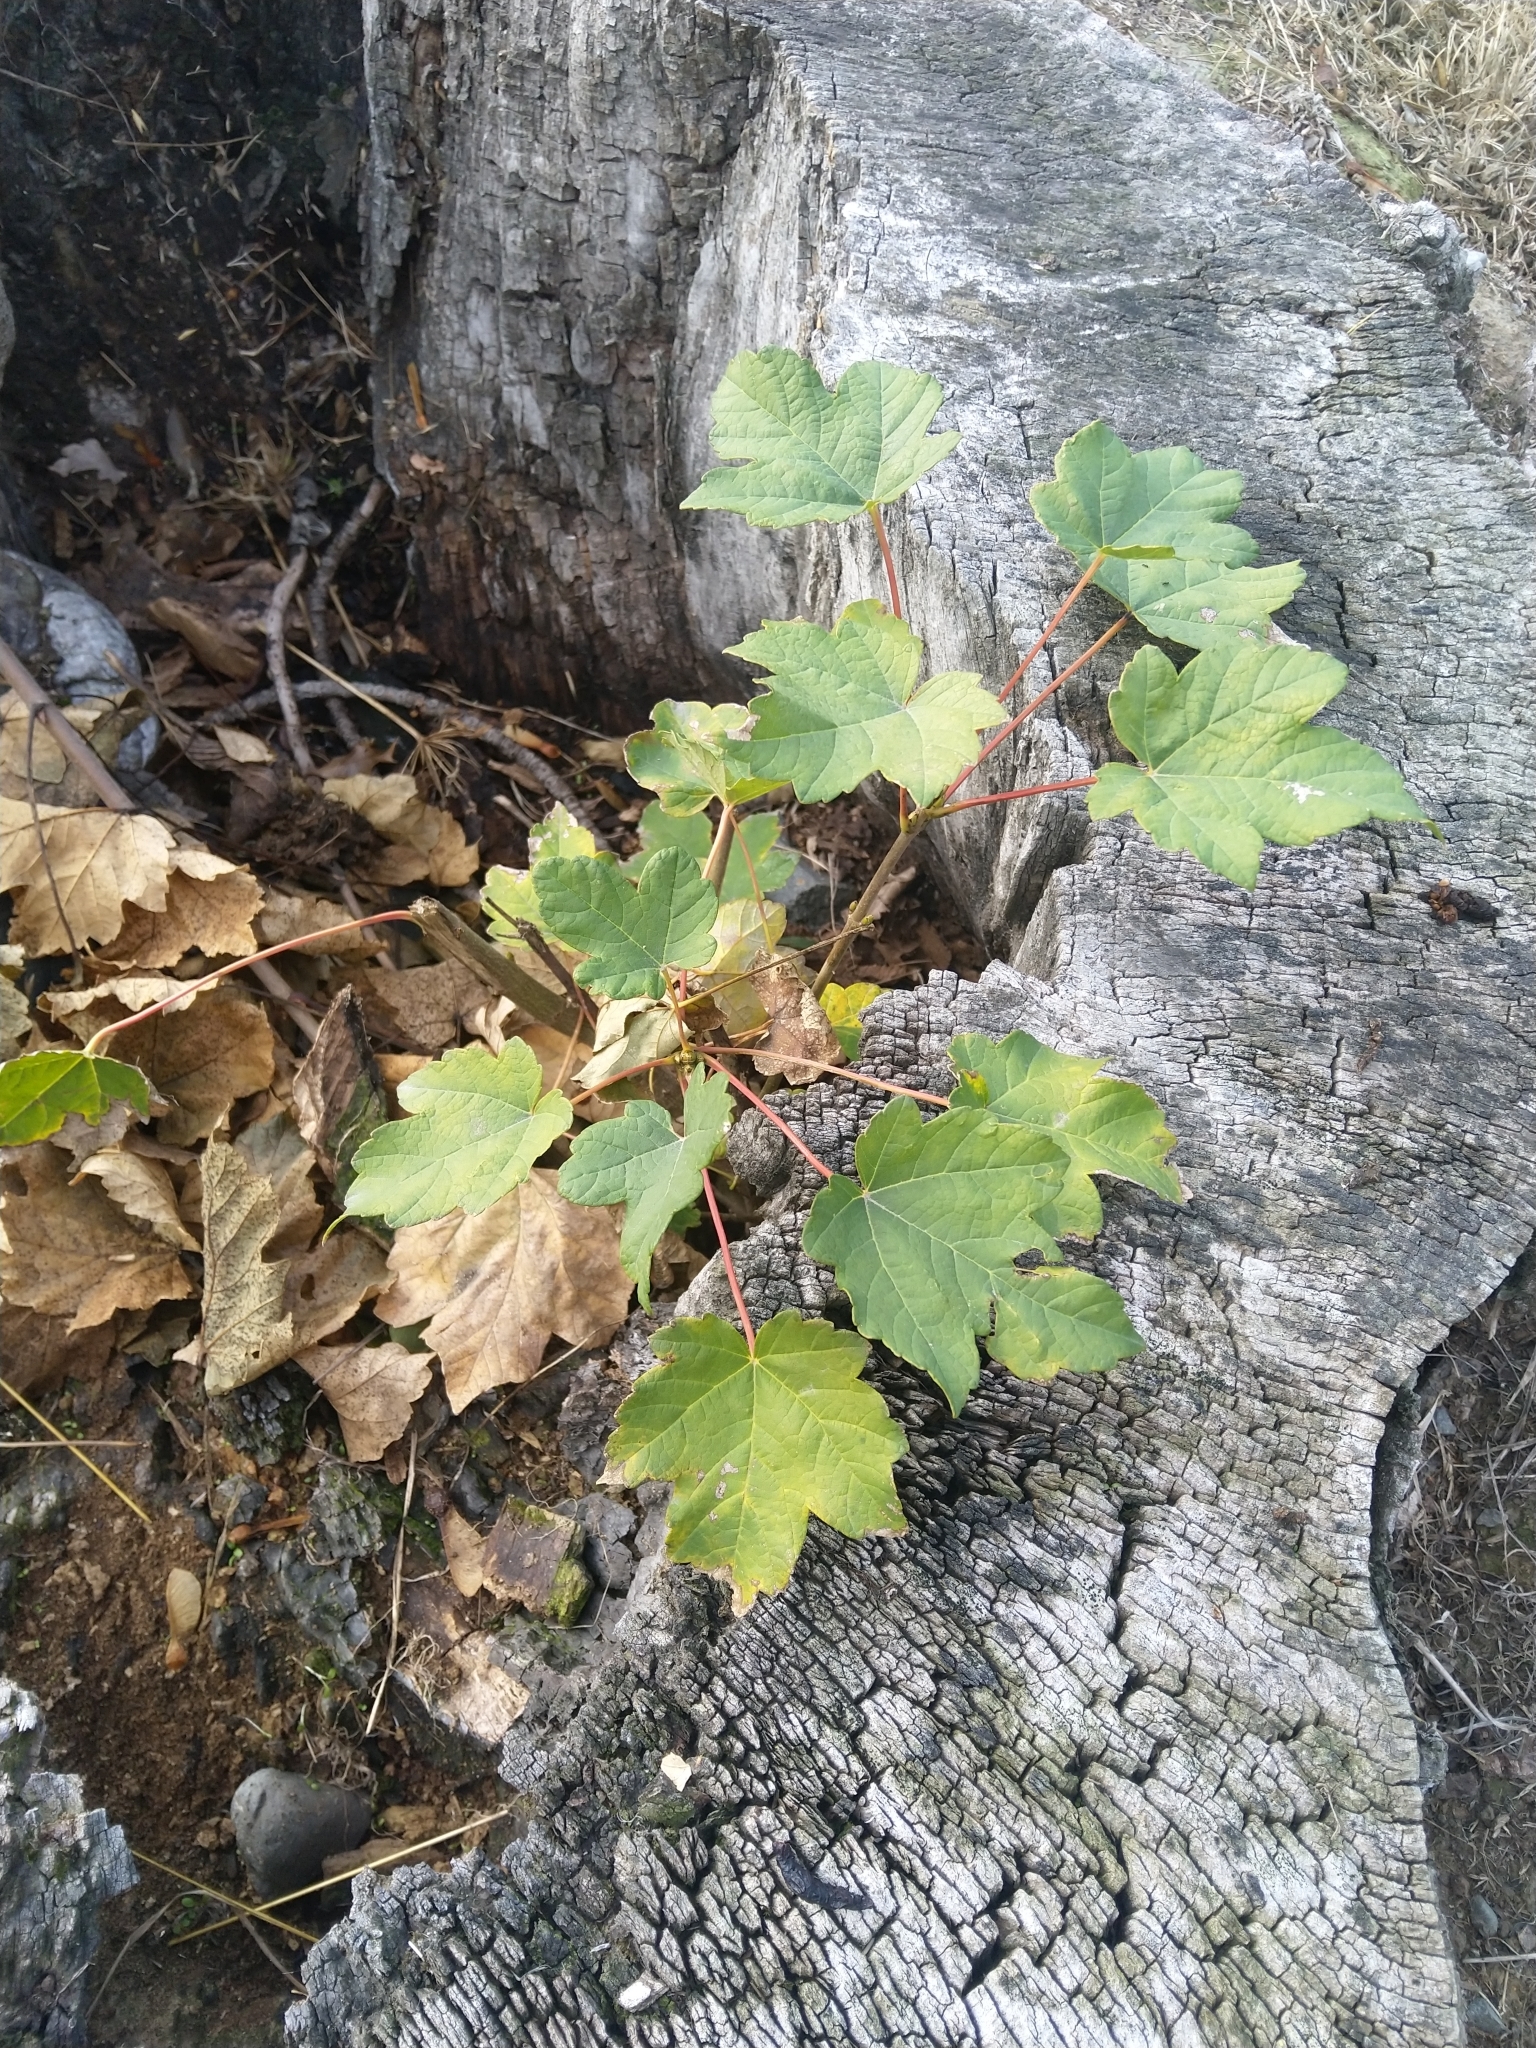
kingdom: Plantae
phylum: Tracheophyta
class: Magnoliopsida
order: Sapindales
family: Sapindaceae
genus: Acer
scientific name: Acer pseudoplatanus
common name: Sycamore
